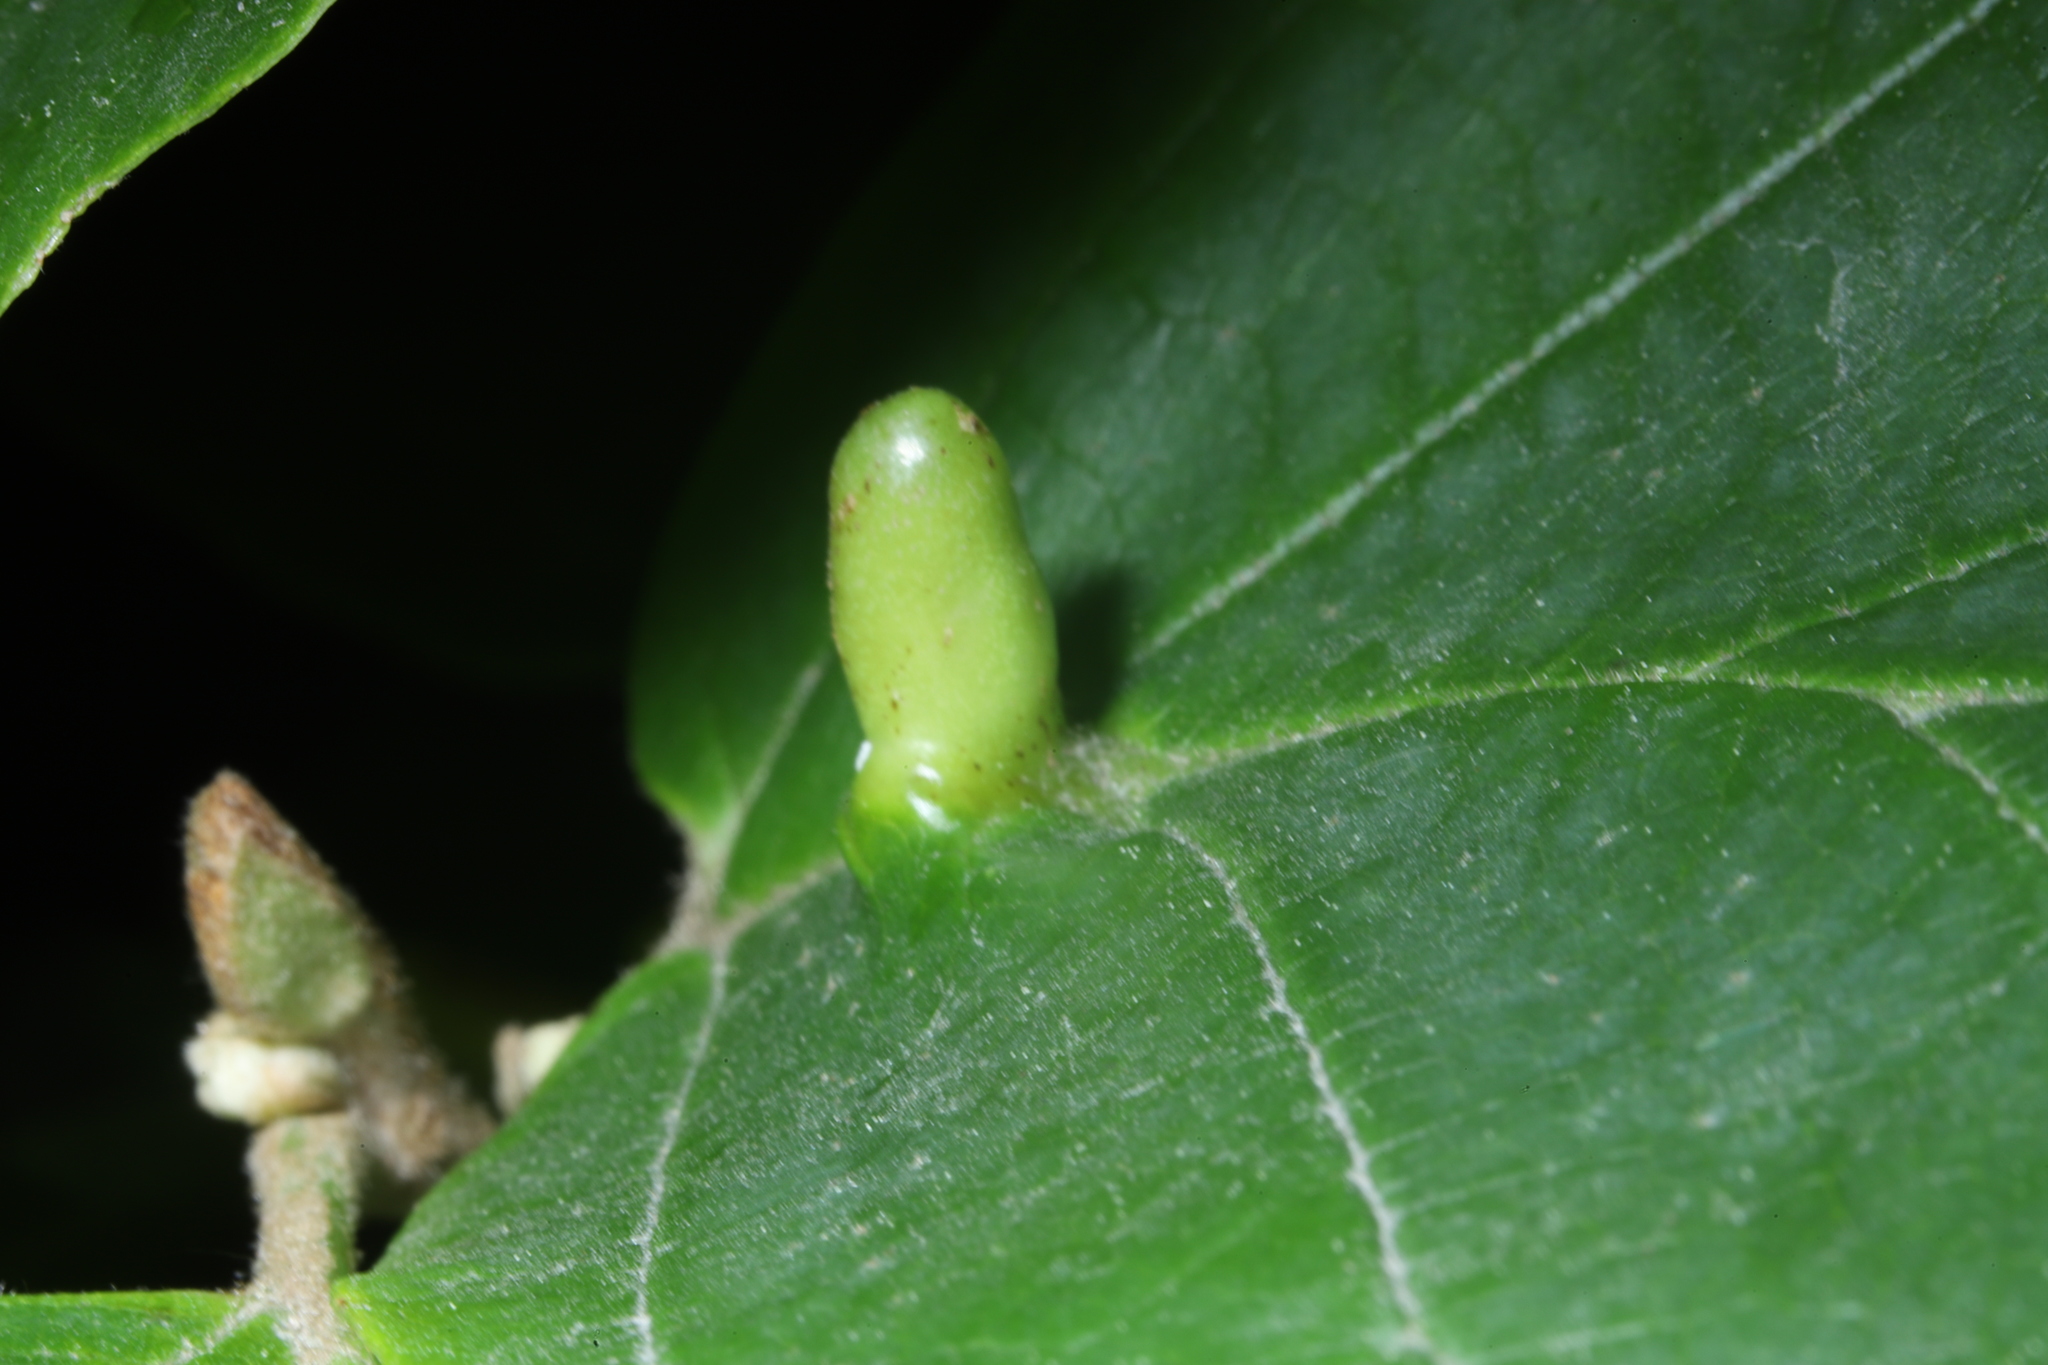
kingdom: Animalia
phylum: Arthropoda
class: Insecta
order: Hemiptera
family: Aphididae
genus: Hormaphis
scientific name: Hormaphis hamamelidis
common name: Witch-hazel cone gall aphid
